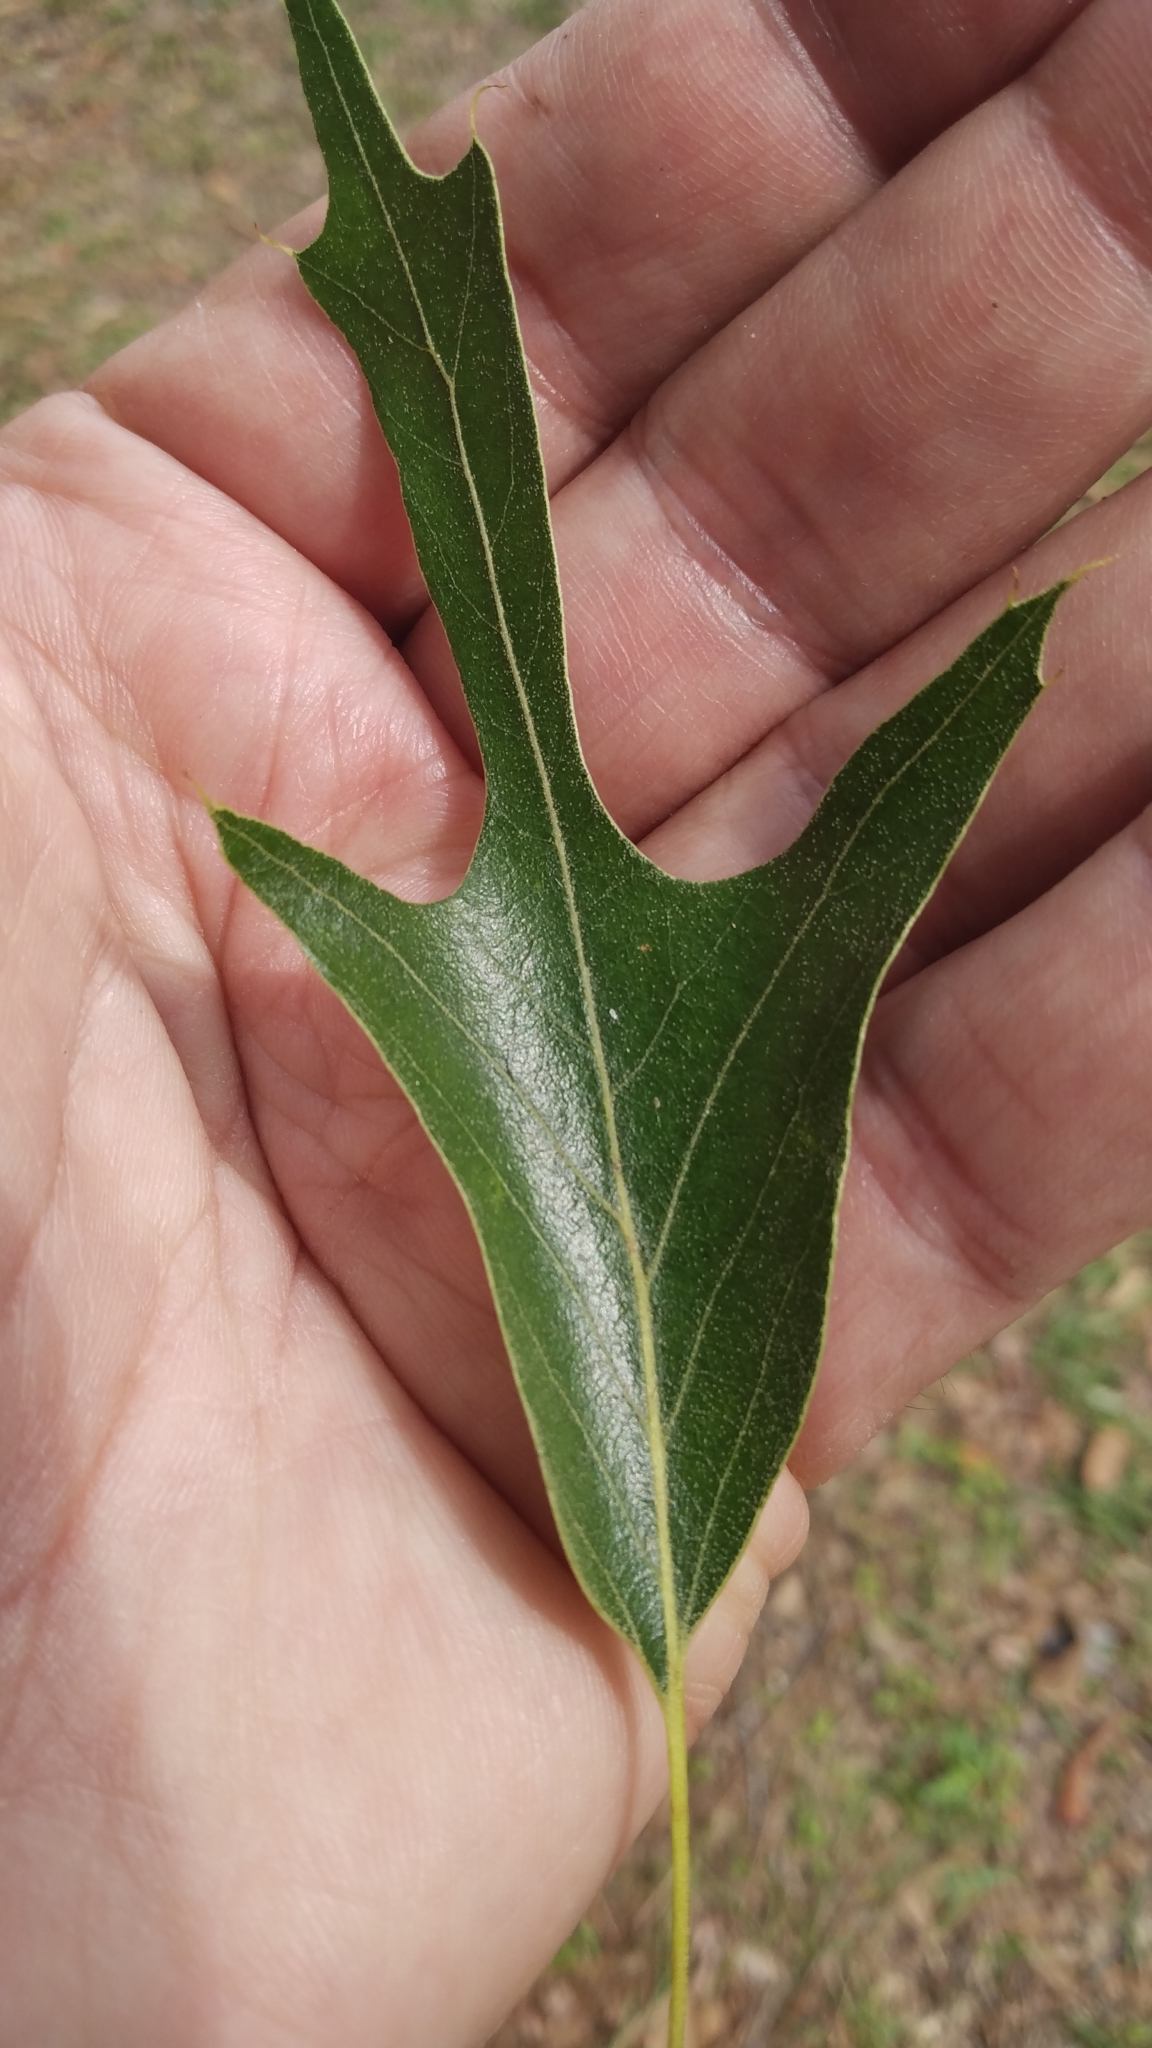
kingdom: Plantae
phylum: Tracheophyta
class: Magnoliopsida
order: Fagales
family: Fagaceae
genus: Quercus
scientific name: Quercus falcata
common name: Southern red oak
